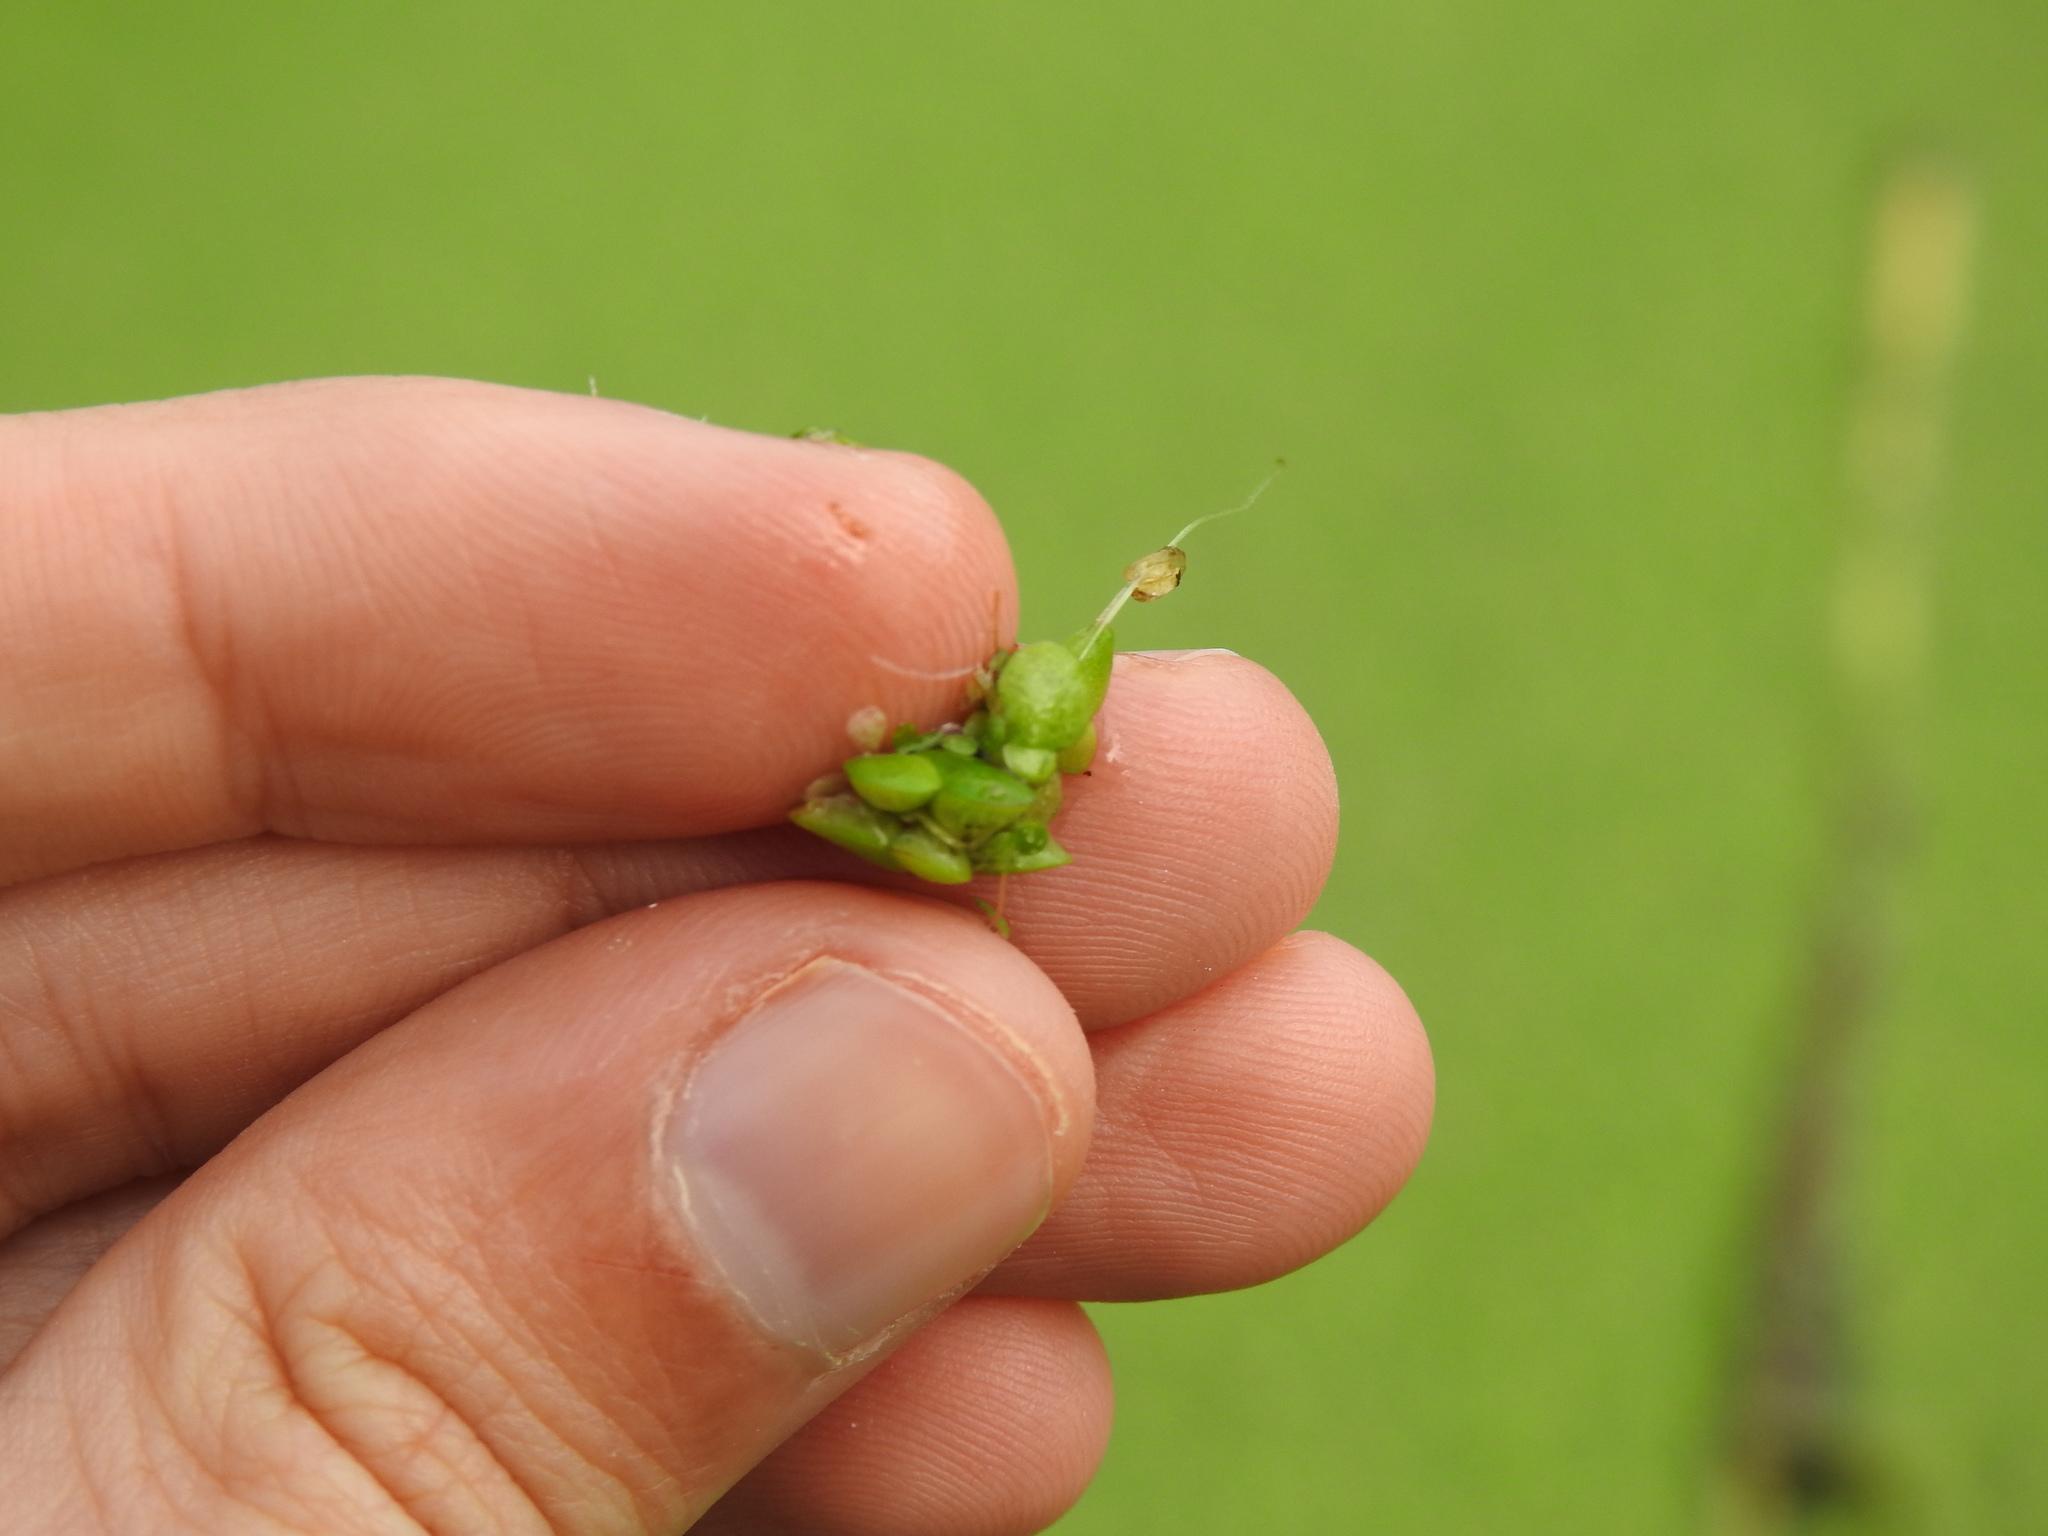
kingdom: Plantae
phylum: Tracheophyta
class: Liliopsida
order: Alismatales
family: Araceae
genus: Lemna
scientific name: Lemna gibba
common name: Fat duckweed
